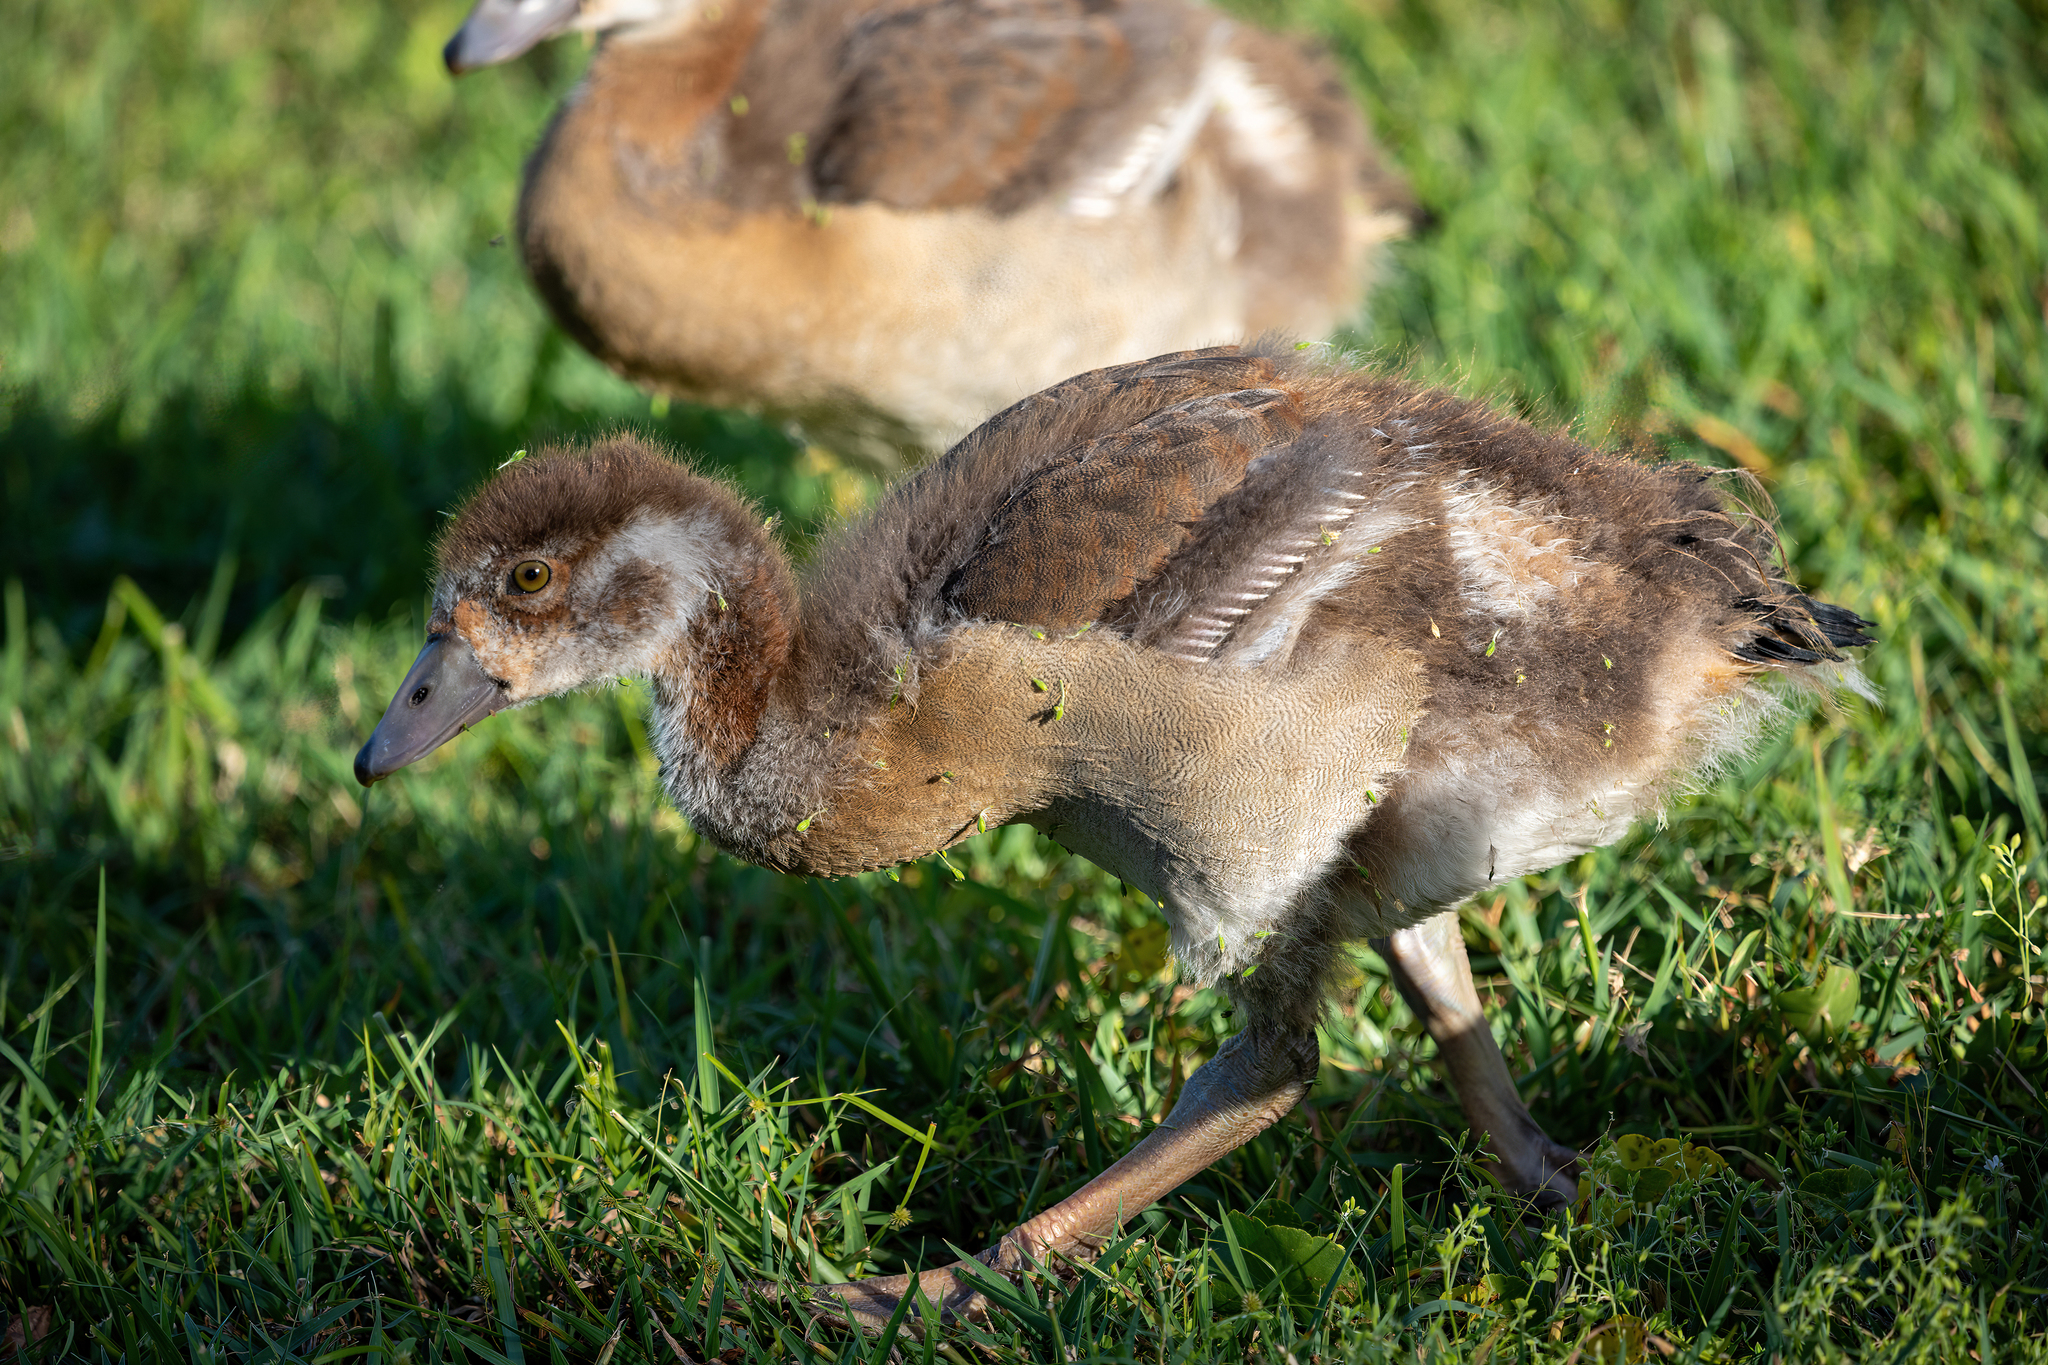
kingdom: Animalia
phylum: Chordata
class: Aves
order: Anseriformes
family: Anatidae
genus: Alopochen
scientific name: Alopochen aegyptiaca
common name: Egyptian goose
